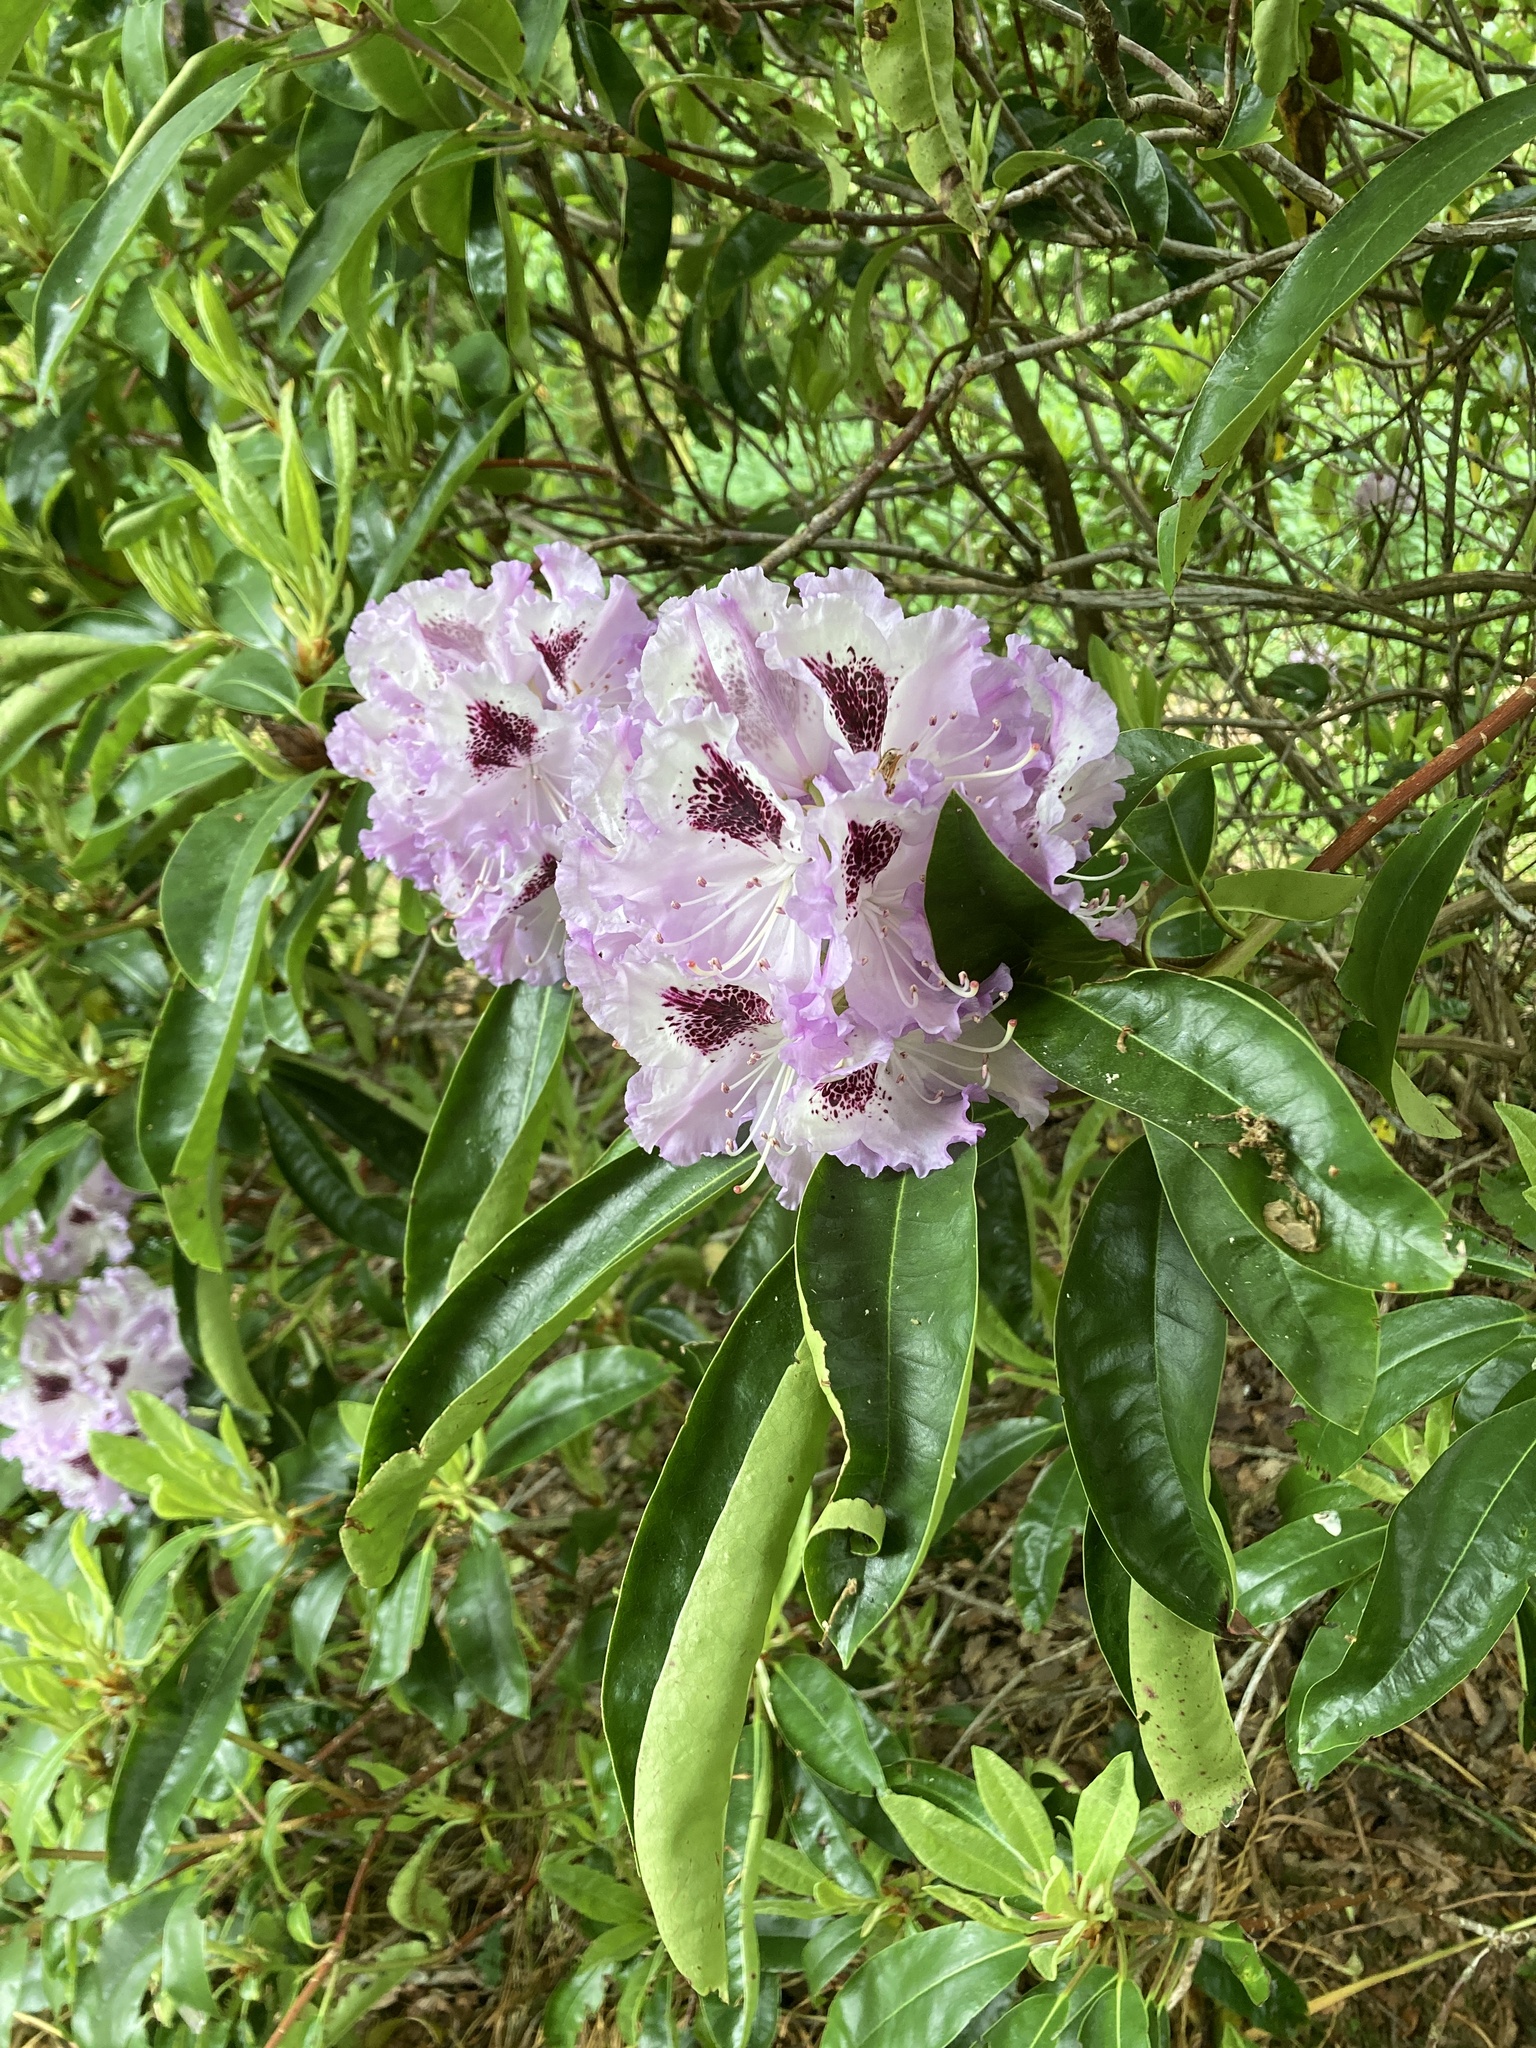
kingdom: Plantae
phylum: Tracheophyta
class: Magnoliopsida
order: Ericales
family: Ericaceae
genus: Rhododendron
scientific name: Rhododendron ponticum
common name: Rhododendron
